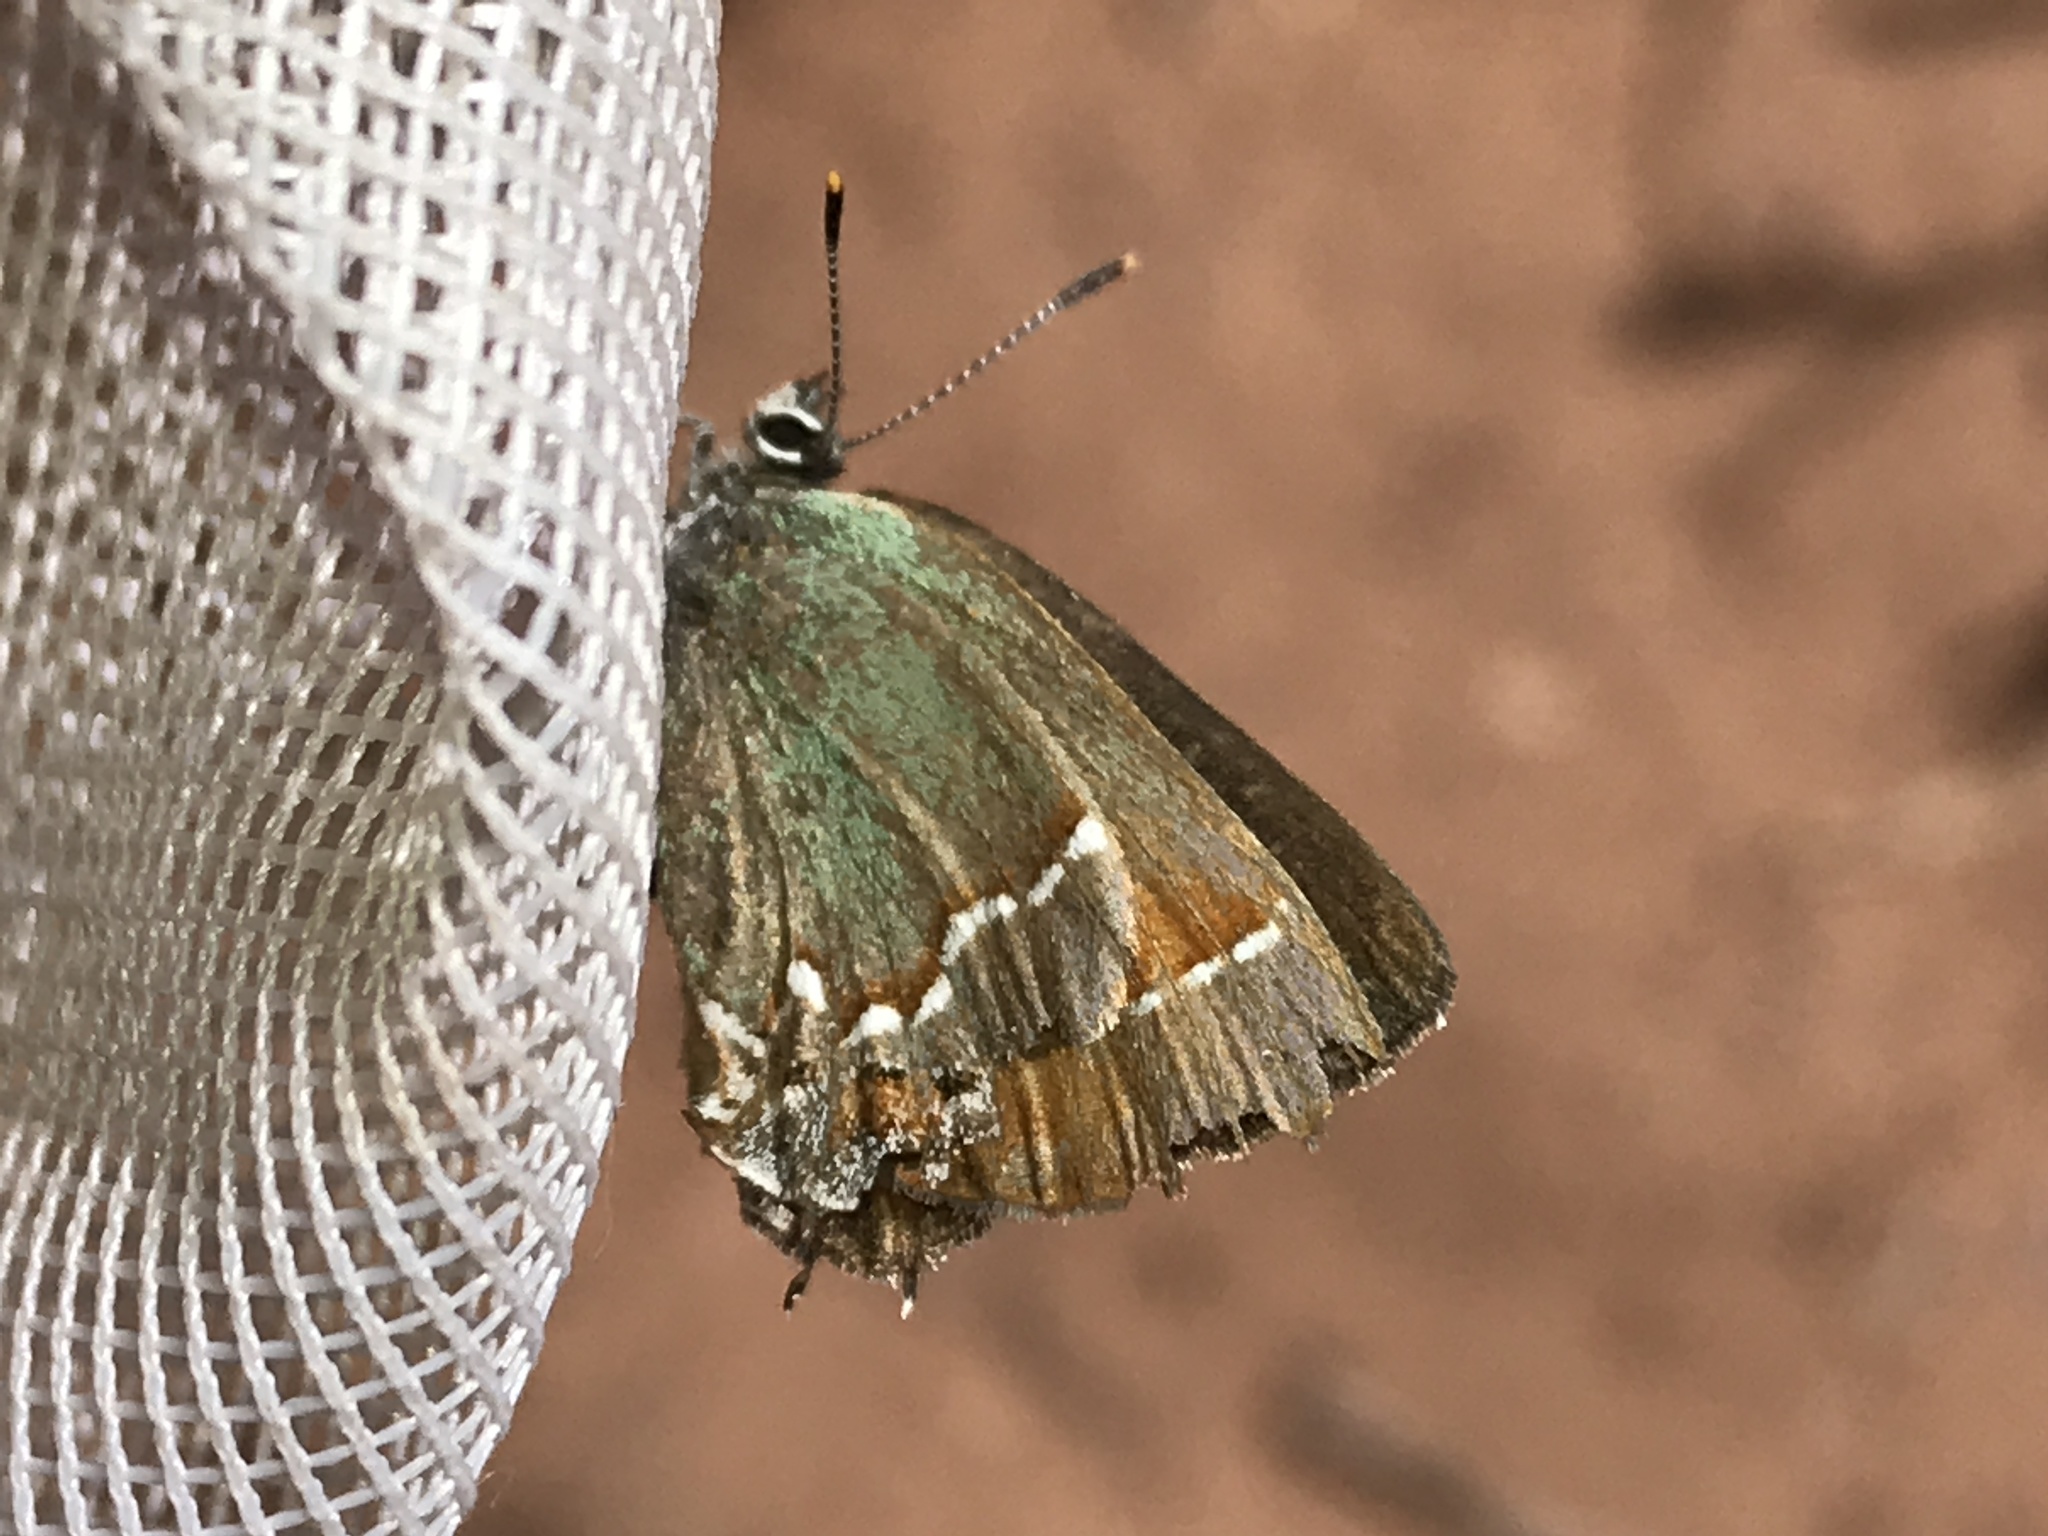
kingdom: Animalia
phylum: Arthropoda
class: Insecta
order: Lepidoptera
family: Lycaenidae
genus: Mitoura
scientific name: Mitoura siva
